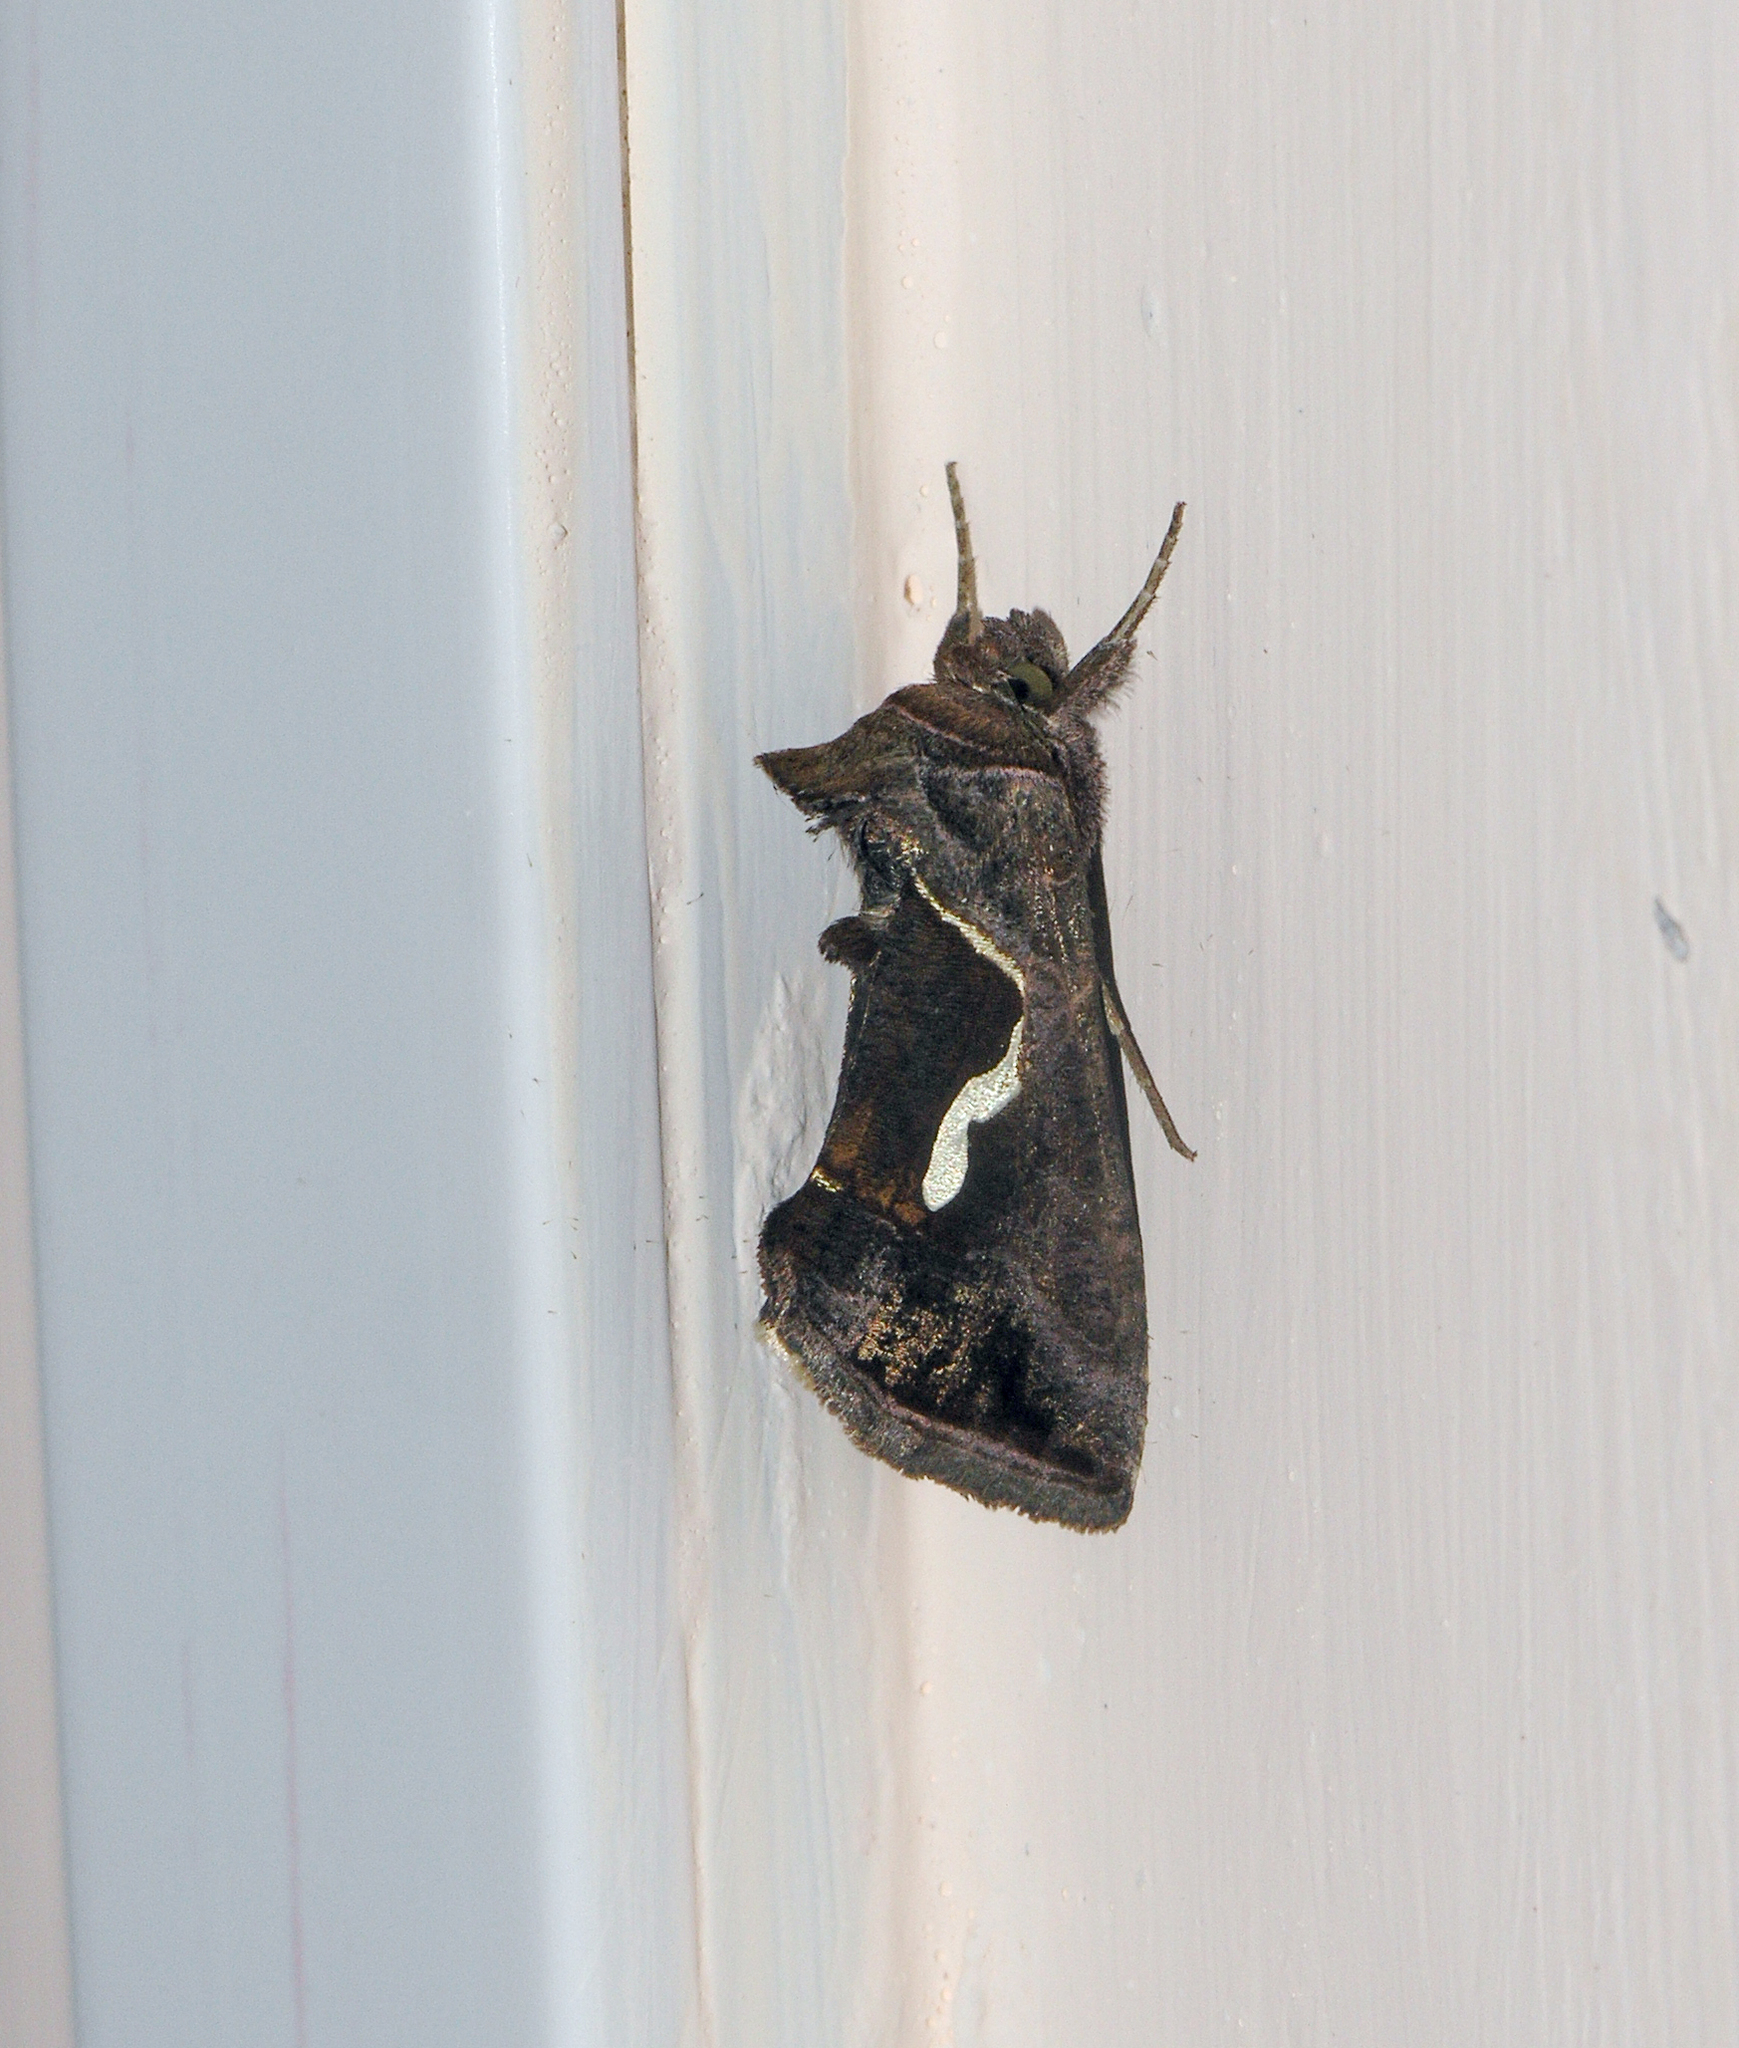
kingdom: Animalia
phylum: Arthropoda
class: Insecta
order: Lepidoptera
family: Noctuidae
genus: Macdunnoughia
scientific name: Macdunnoughia confusa
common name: Dewick's plusia
